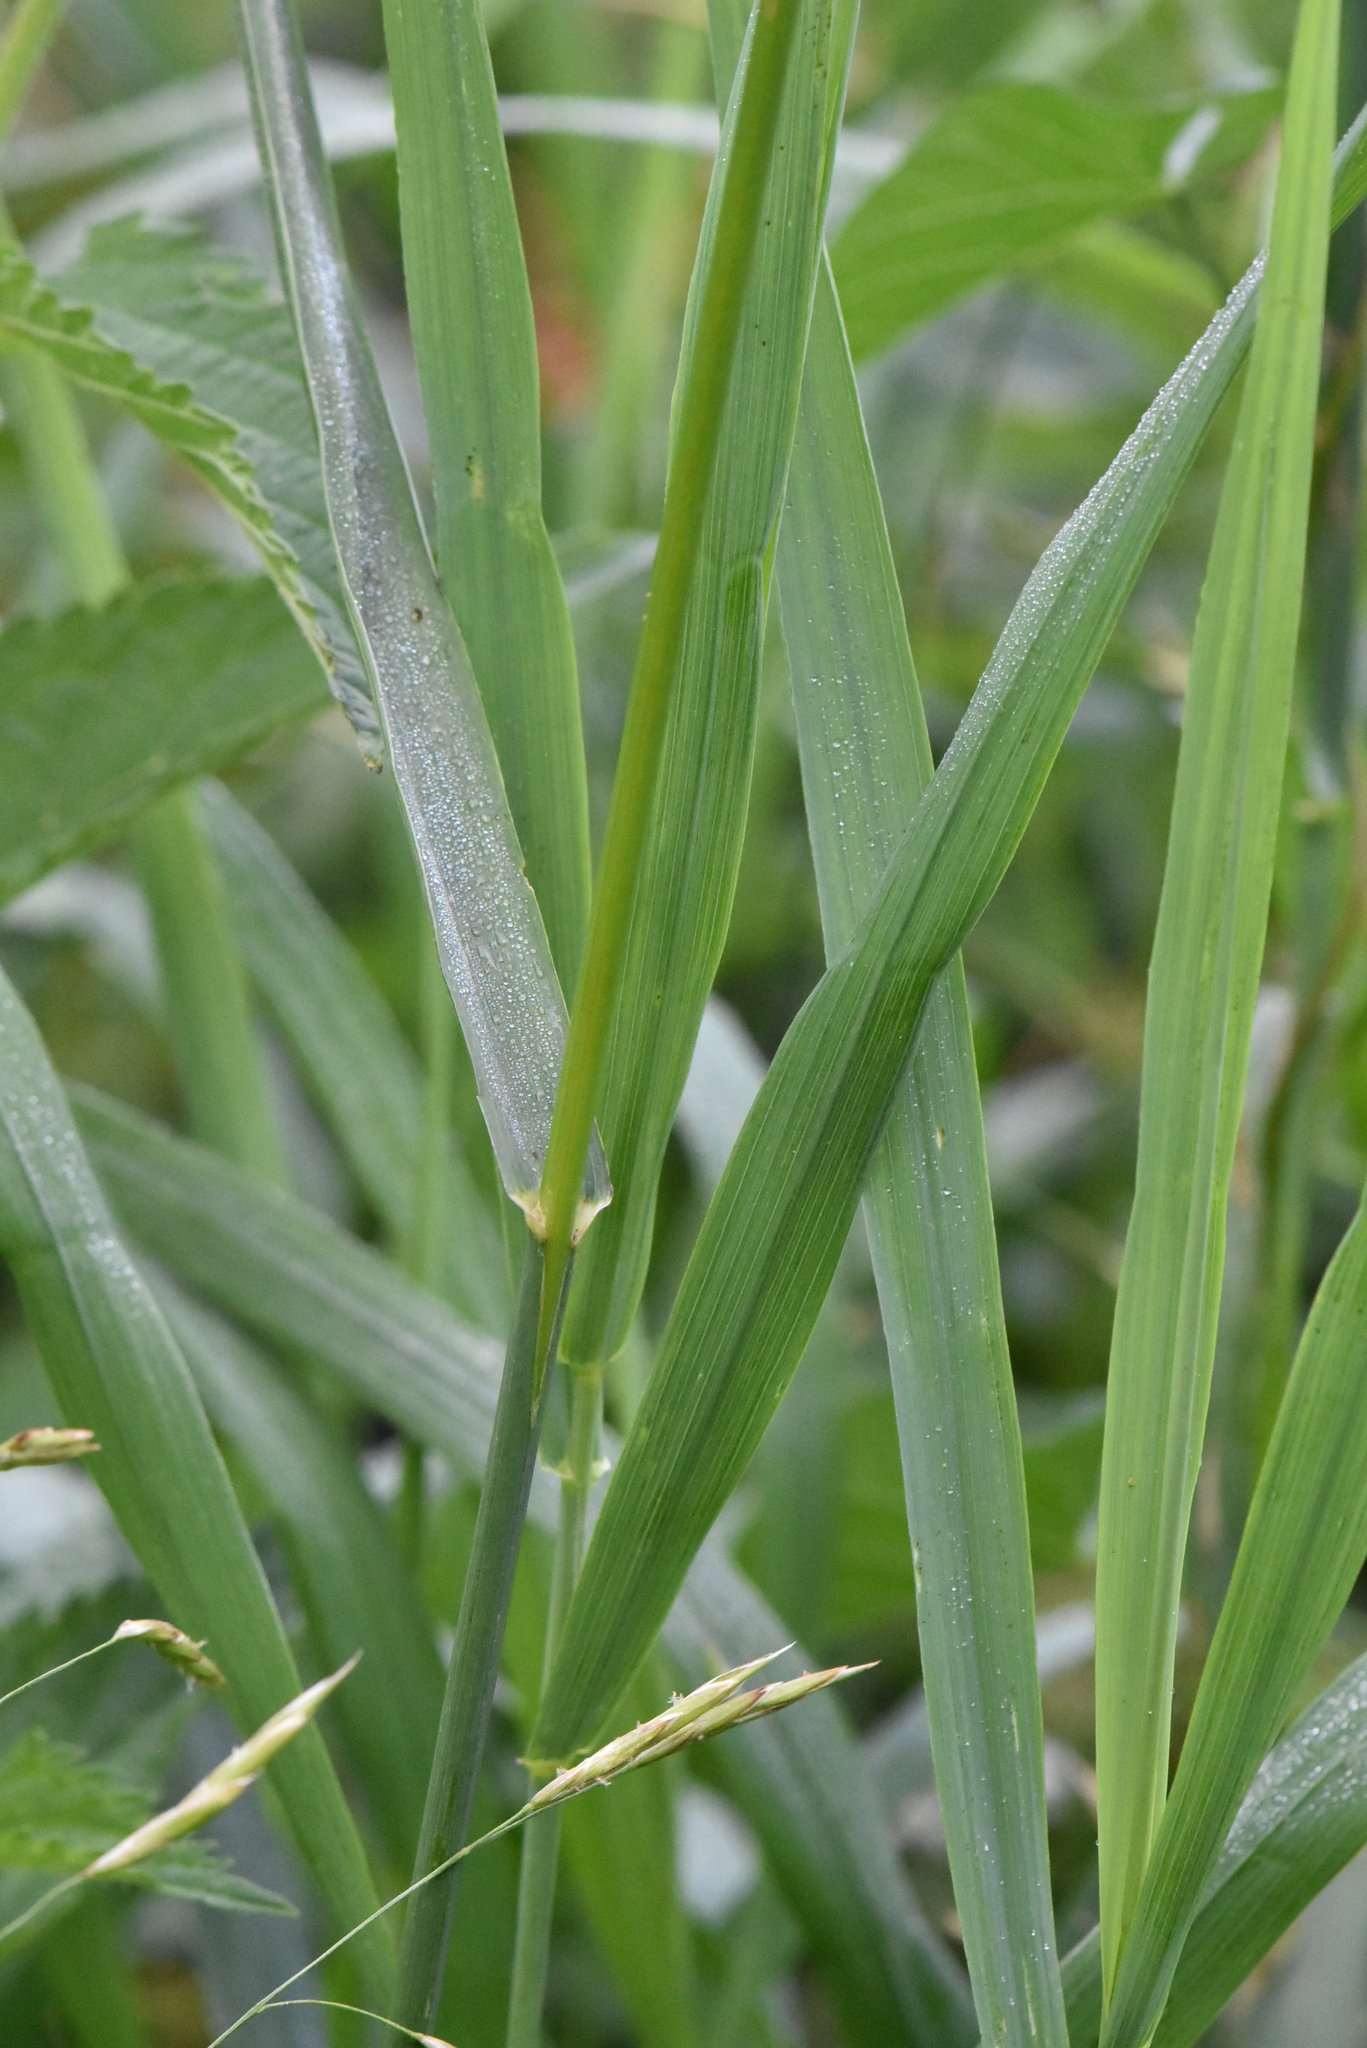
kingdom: Plantae
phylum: Tracheophyta
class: Liliopsida
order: Poales
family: Poaceae
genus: Bromus
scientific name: Bromus inermis
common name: Smooth brome
